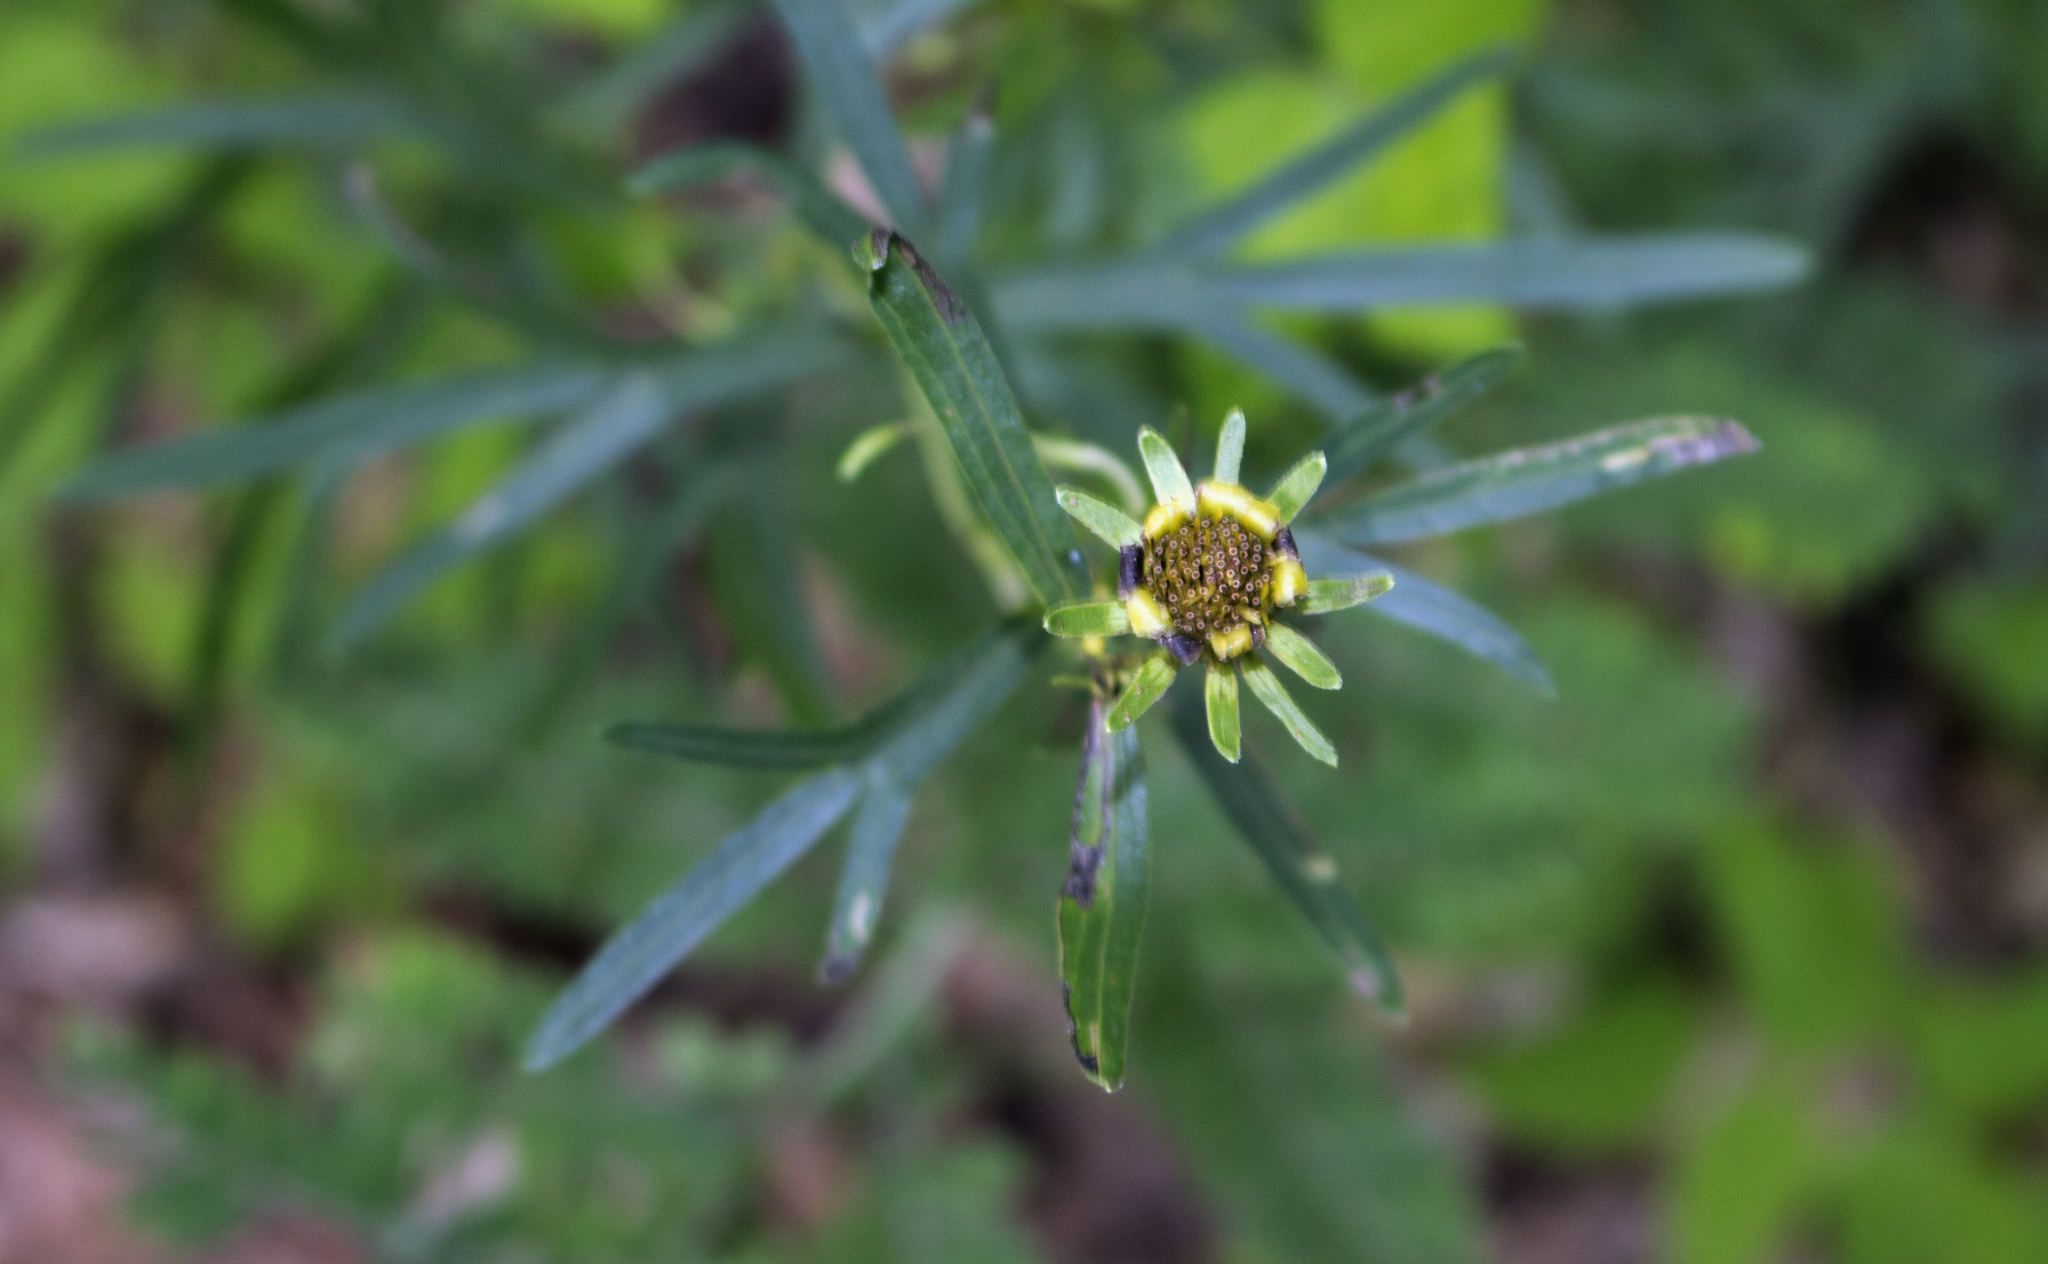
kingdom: Plantae
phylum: Tracheophyta
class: Magnoliopsida
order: Asterales
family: Asteraceae
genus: Coreopsis
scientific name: Coreopsis palmata
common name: Prairie coreopsis
